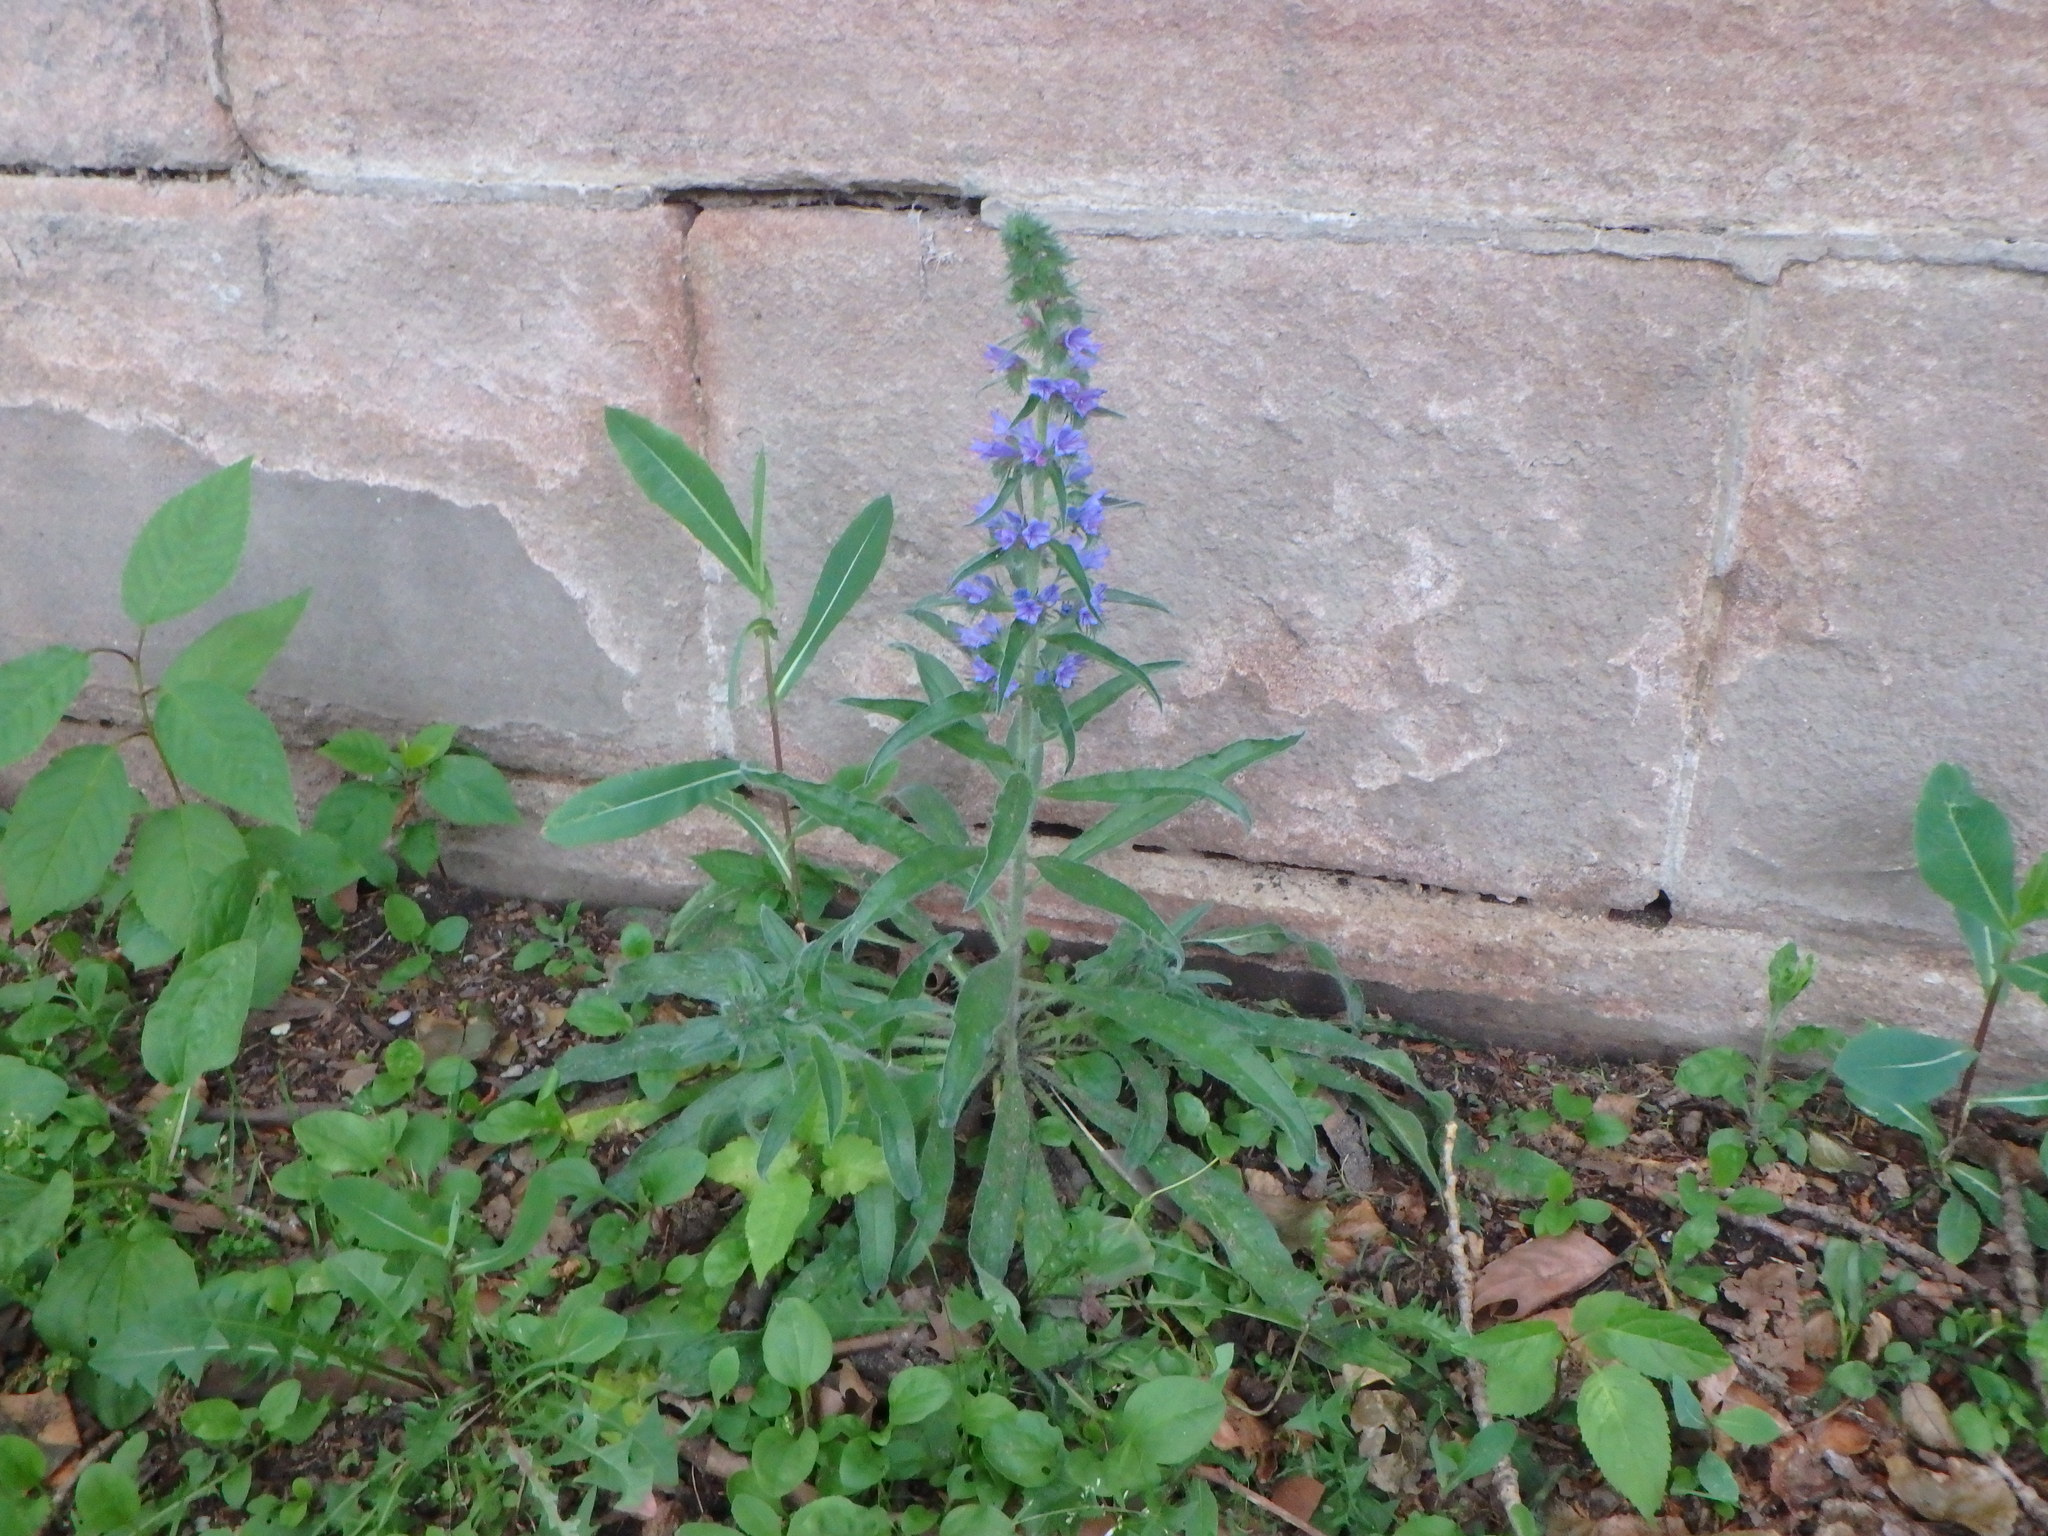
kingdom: Plantae
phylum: Tracheophyta
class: Magnoliopsida
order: Boraginales
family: Boraginaceae
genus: Echium
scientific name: Echium vulgare
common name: Common viper's bugloss
